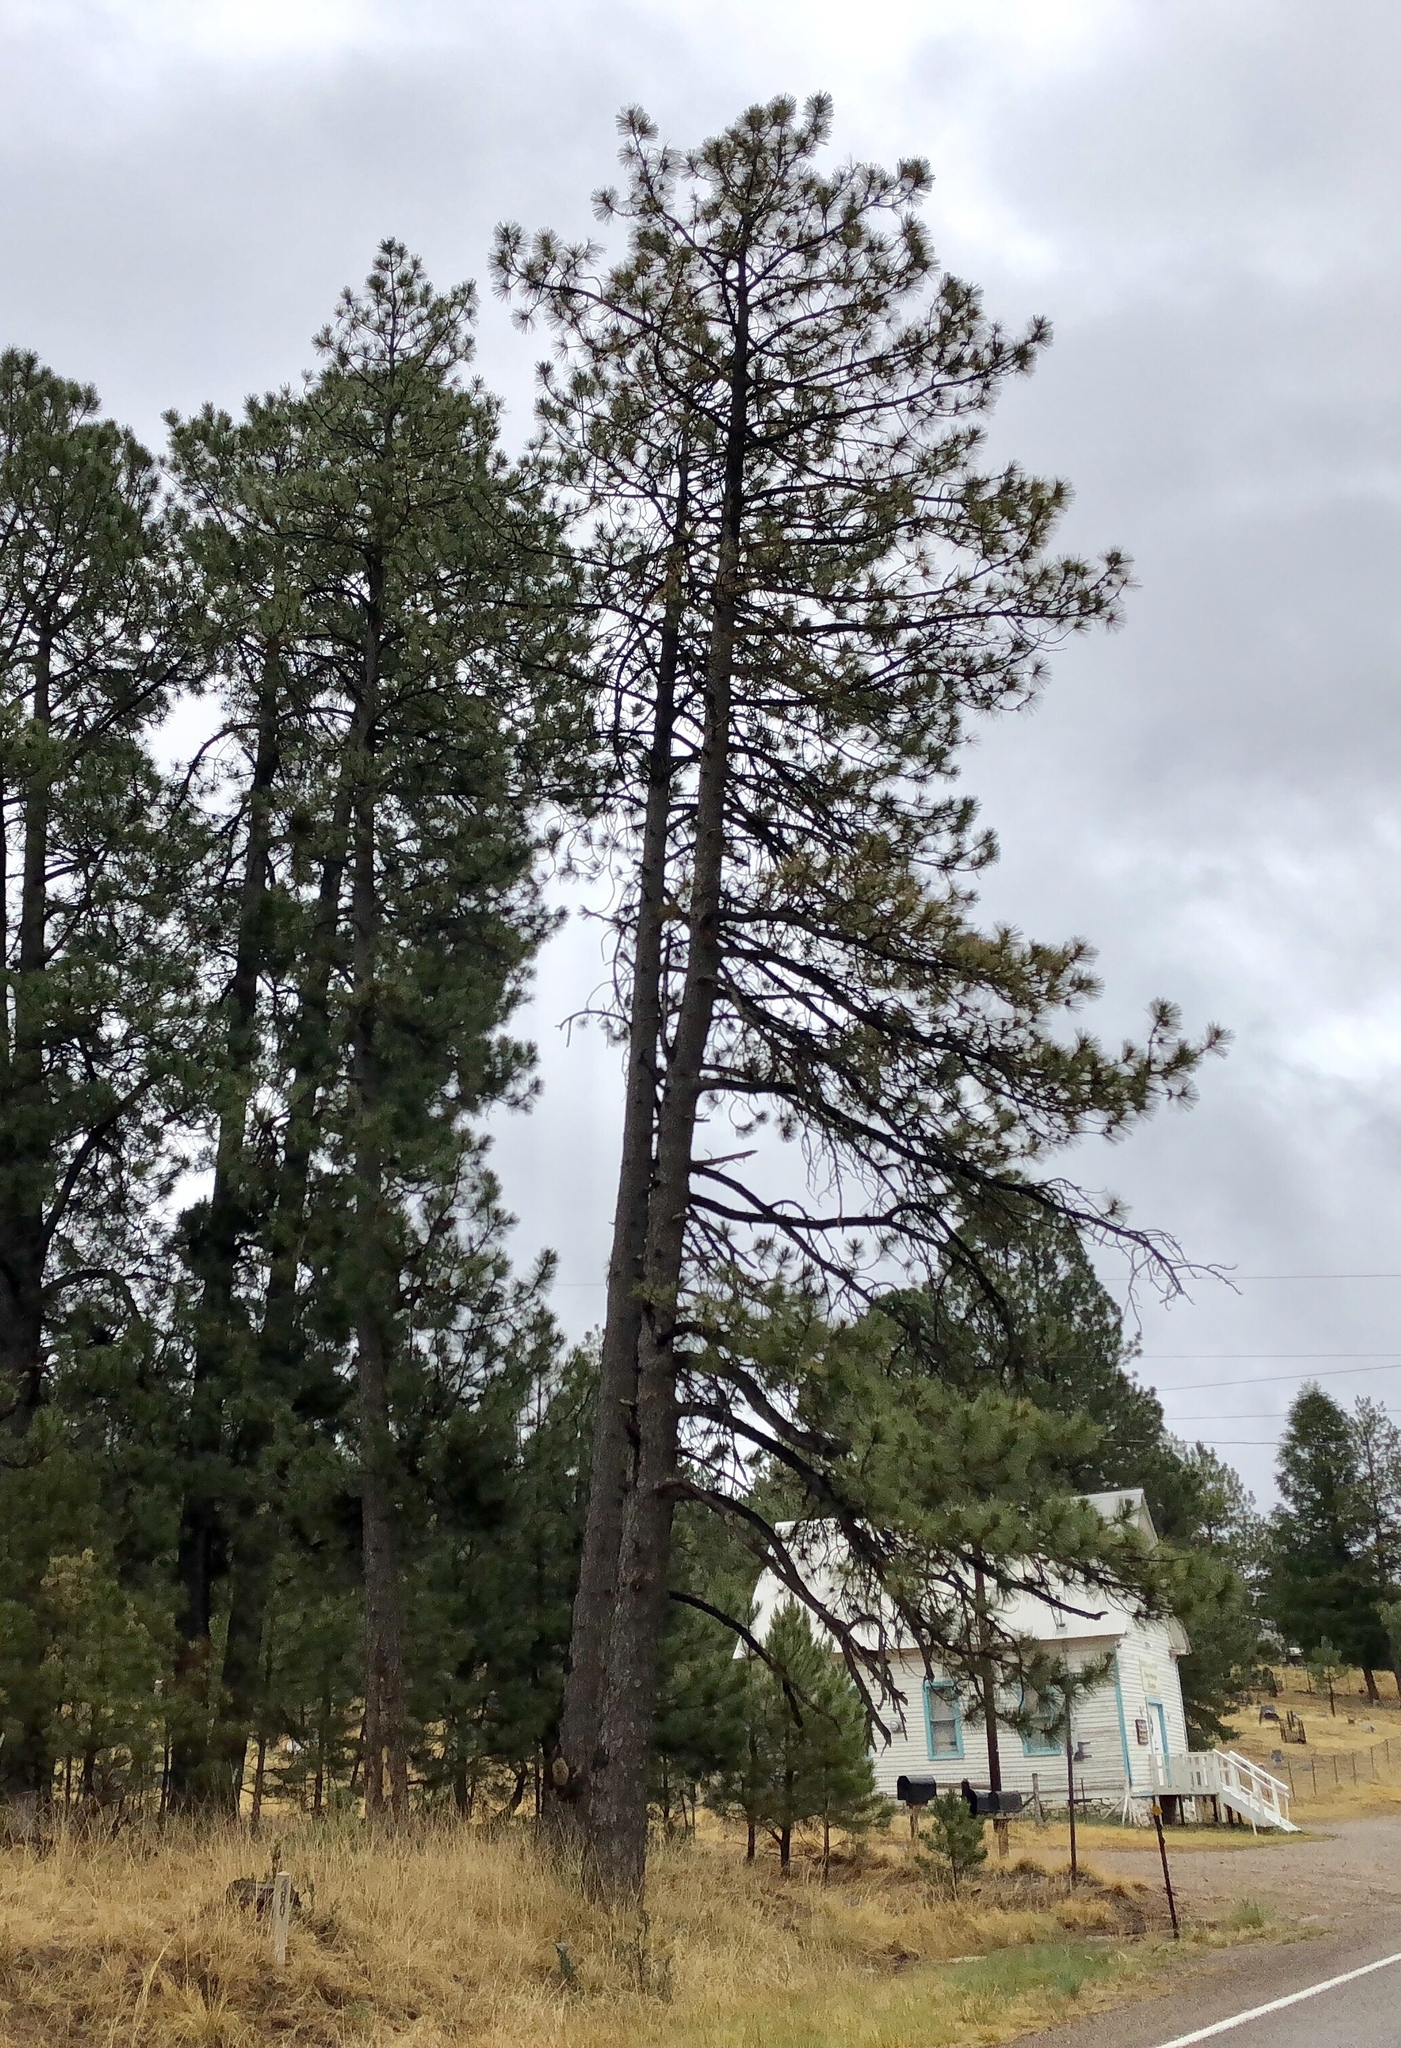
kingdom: Plantae
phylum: Tracheophyta
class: Pinopsida
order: Pinales
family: Pinaceae
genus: Pinus
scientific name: Pinus ponderosa
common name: Western yellow-pine
